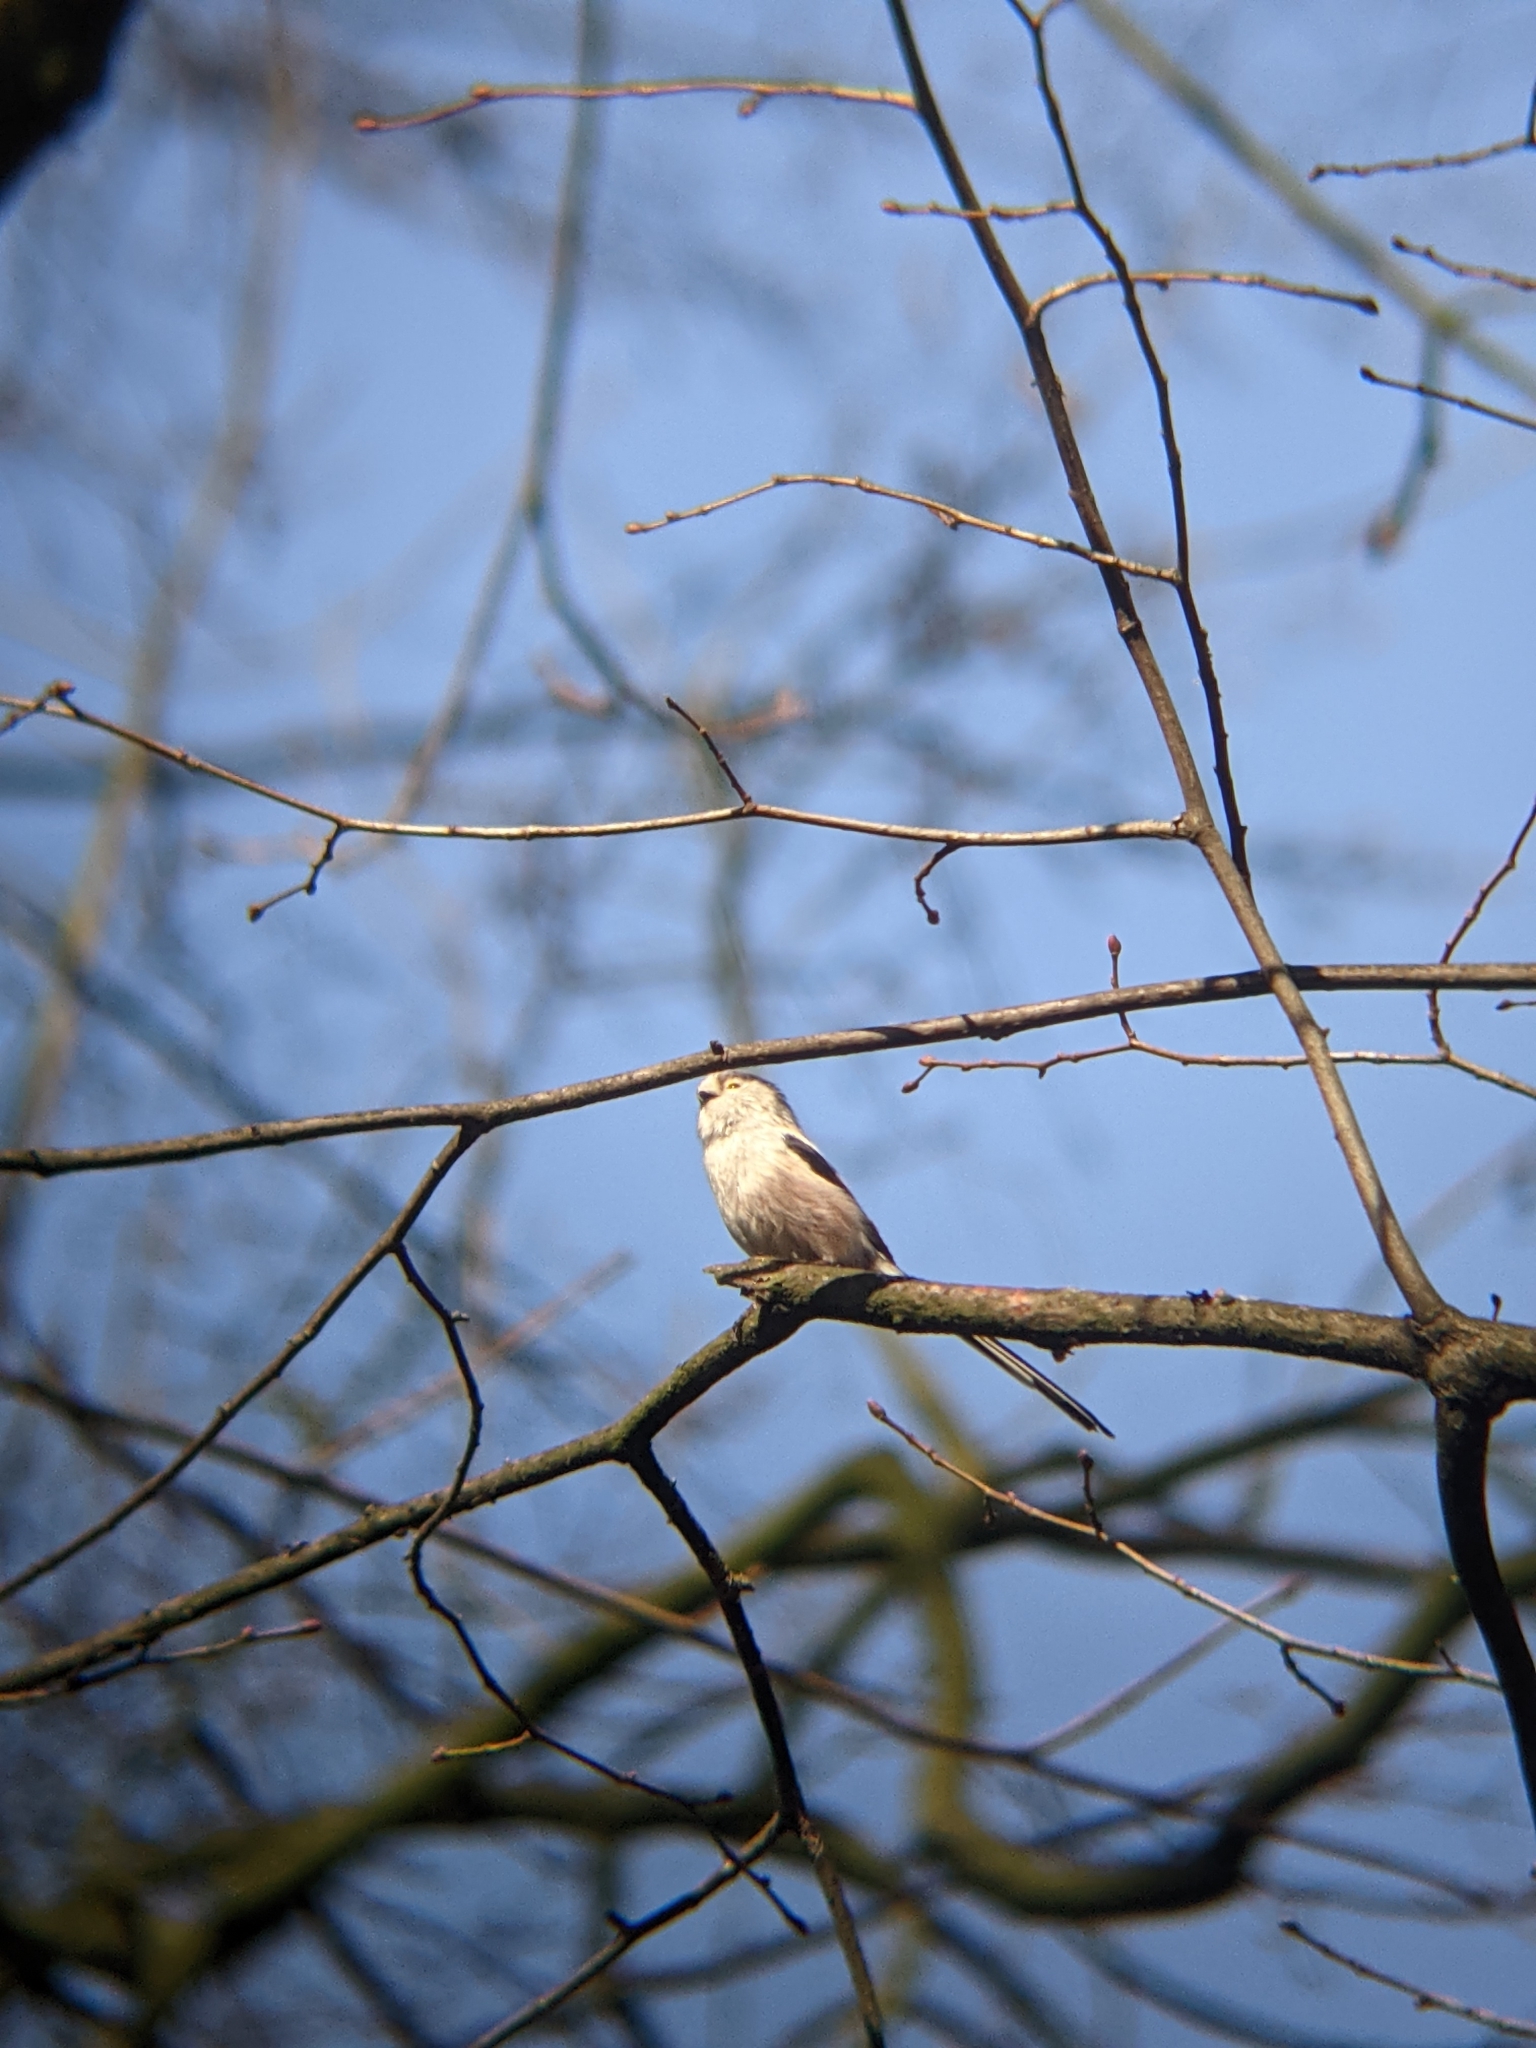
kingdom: Animalia
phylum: Chordata
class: Aves
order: Passeriformes
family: Aegithalidae
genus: Aegithalos
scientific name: Aegithalos caudatus
